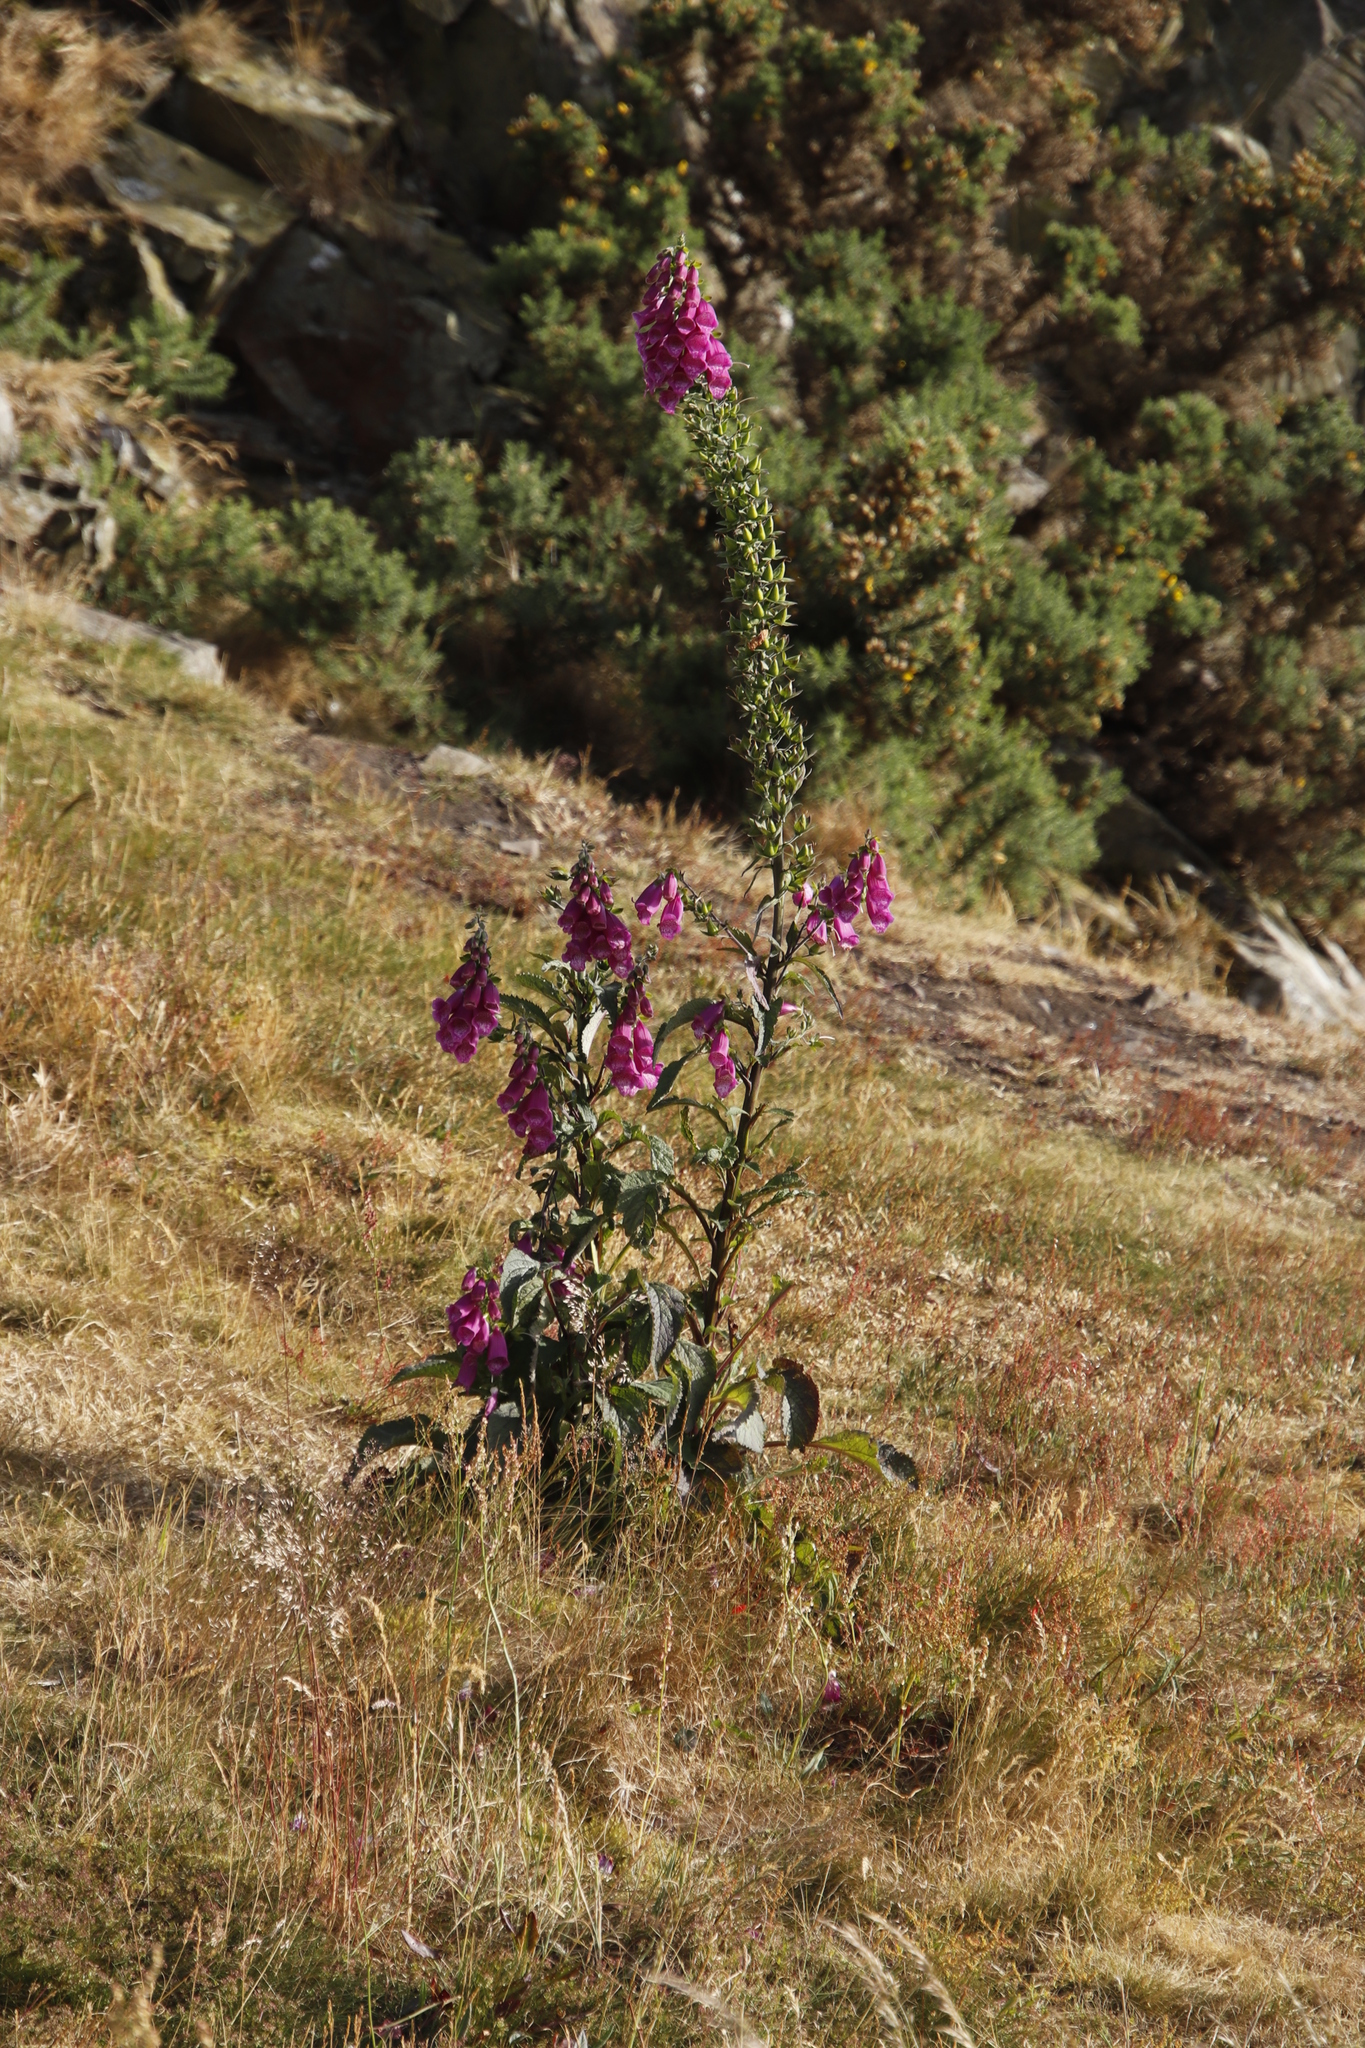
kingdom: Plantae
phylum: Tracheophyta
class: Magnoliopsida
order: Lamiales
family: Plantaginaceae
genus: Digitalis
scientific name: Digitalis purpurea
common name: Foxglove
